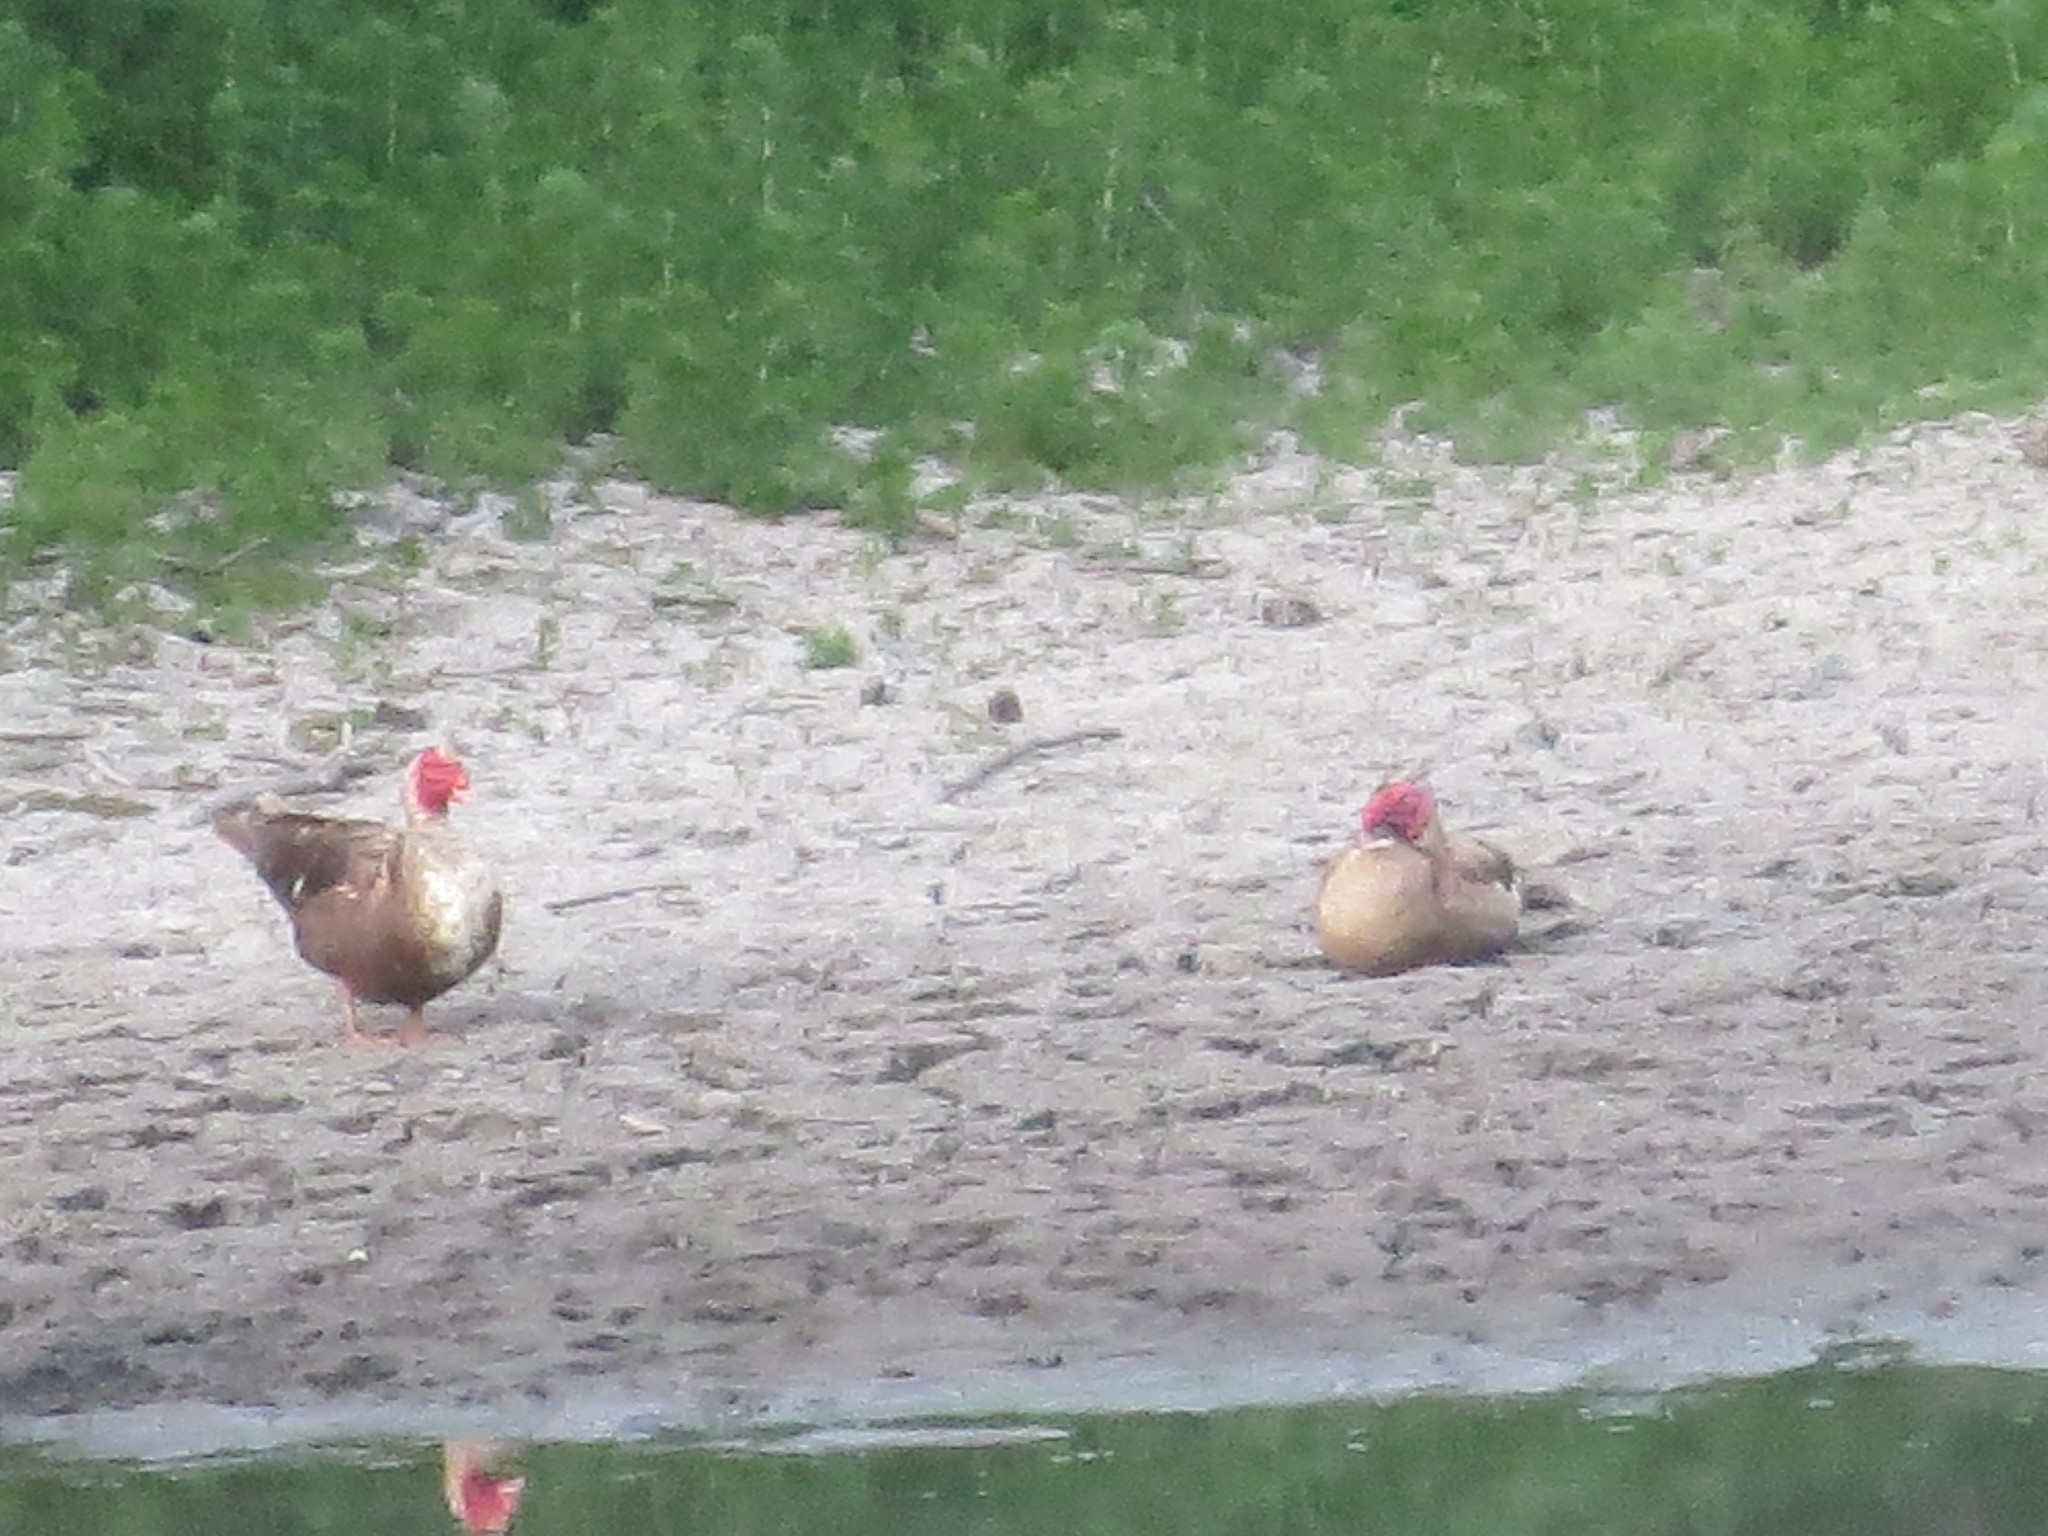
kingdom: Animalia
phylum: Chordata
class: Aves
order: Anseriformes
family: Anatidae
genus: Cairina
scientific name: Cairina moschata
